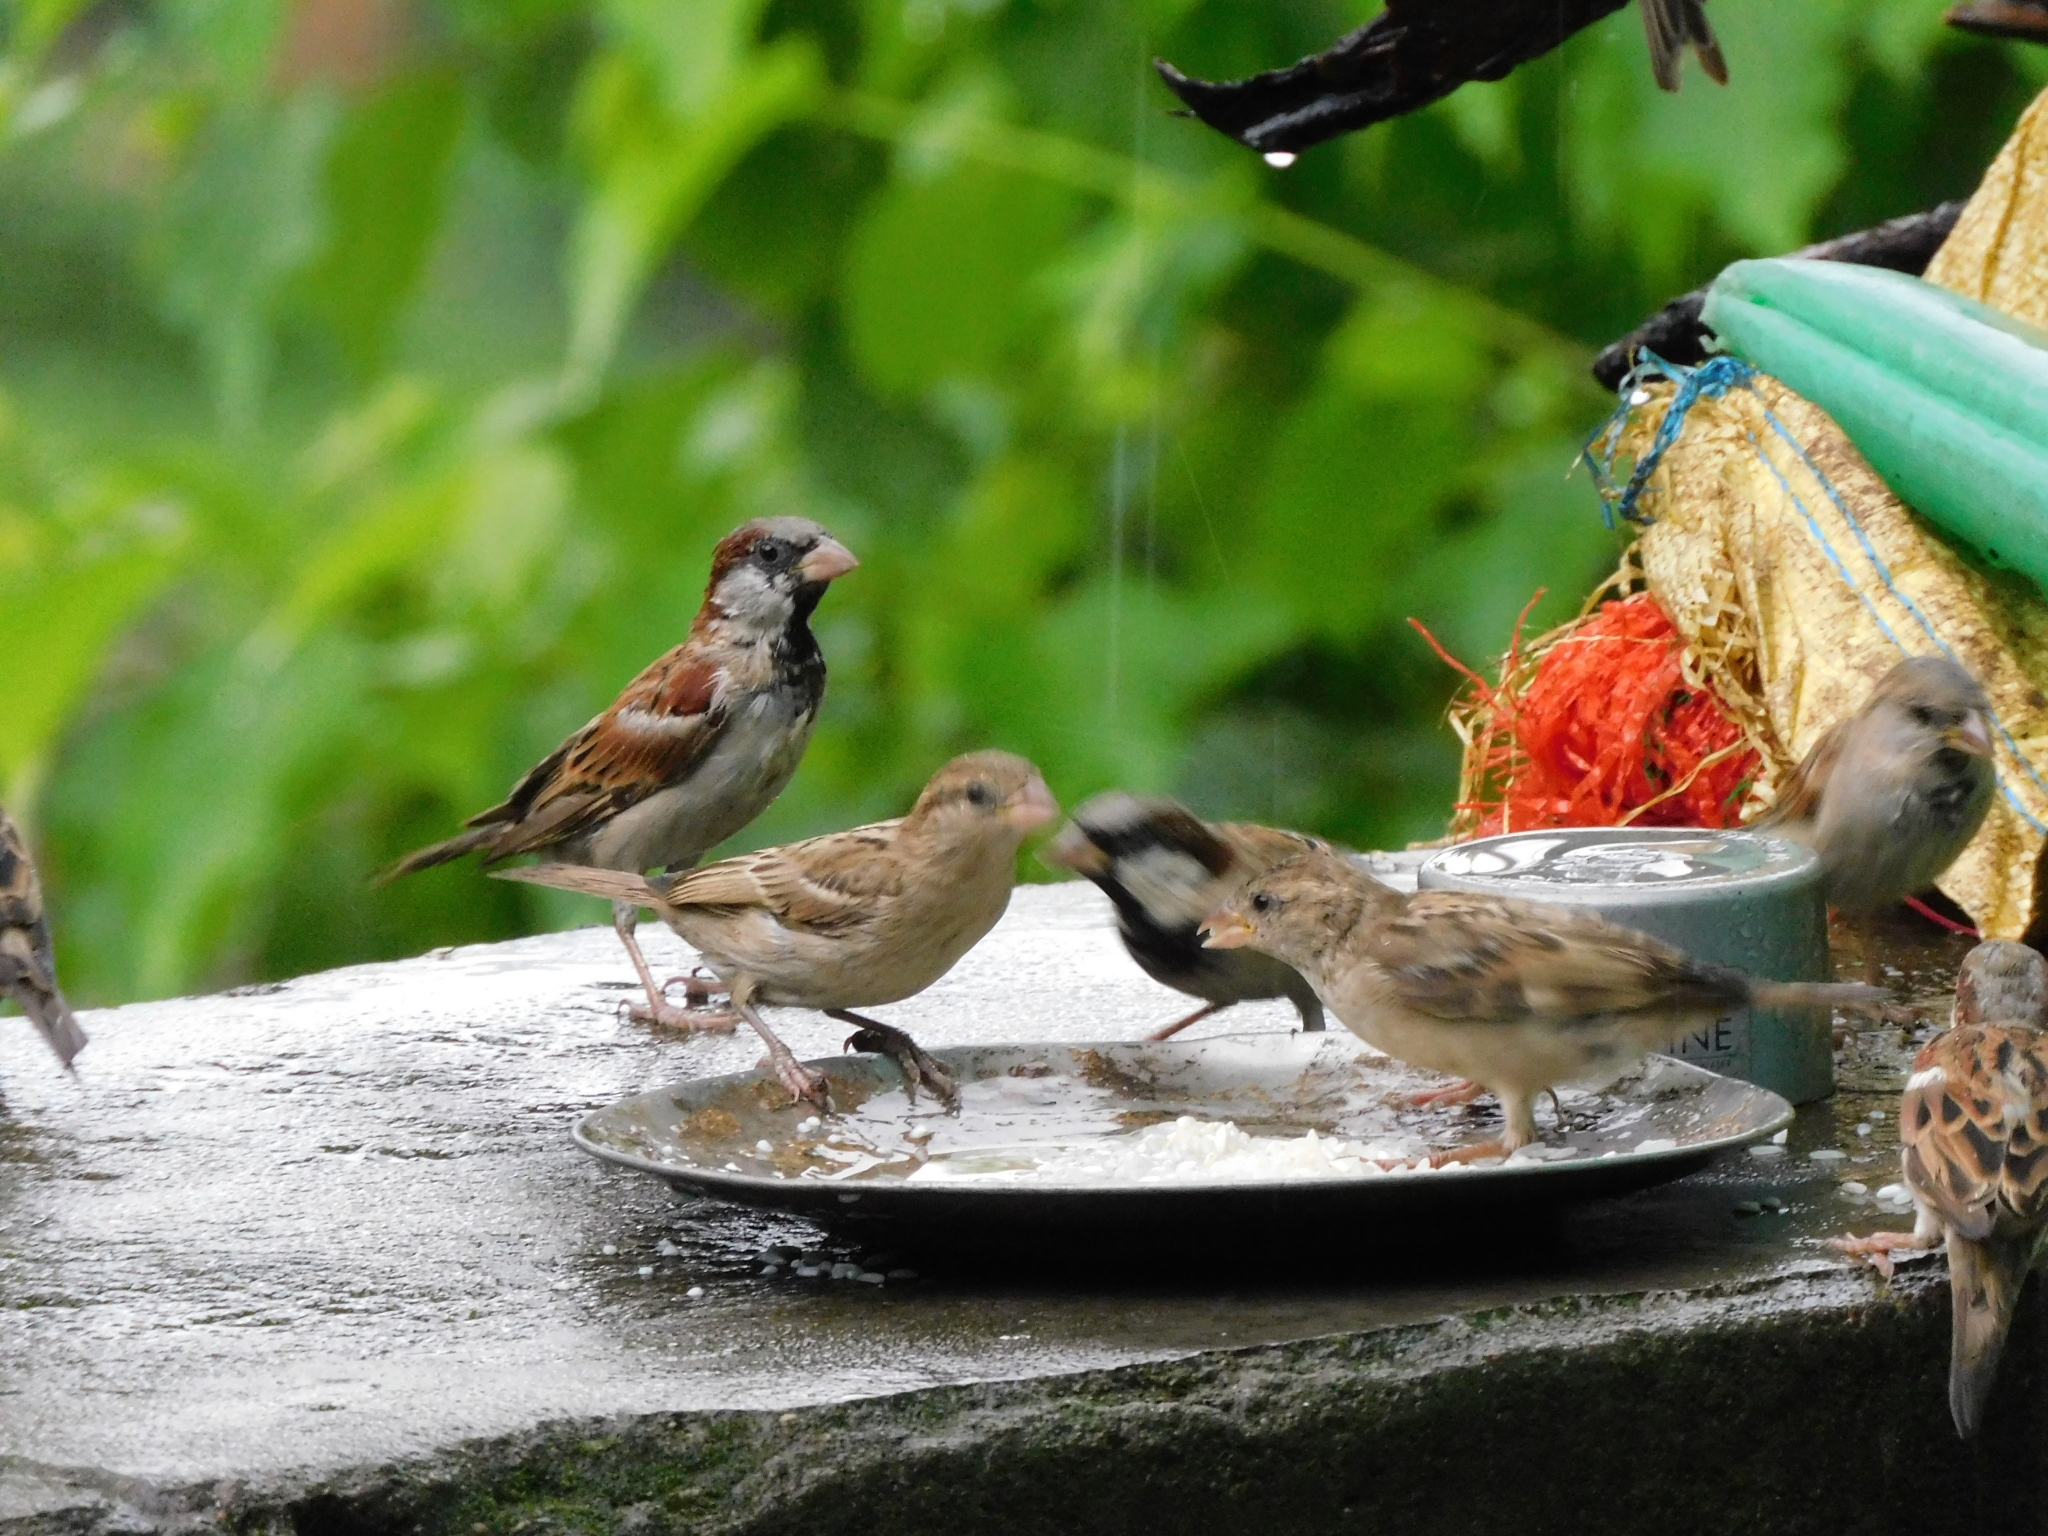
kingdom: Animalia
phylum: Chordata
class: Aves
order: Passeriformes
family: Passeridae
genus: Passer
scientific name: Passer domesticus
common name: House sparrow
